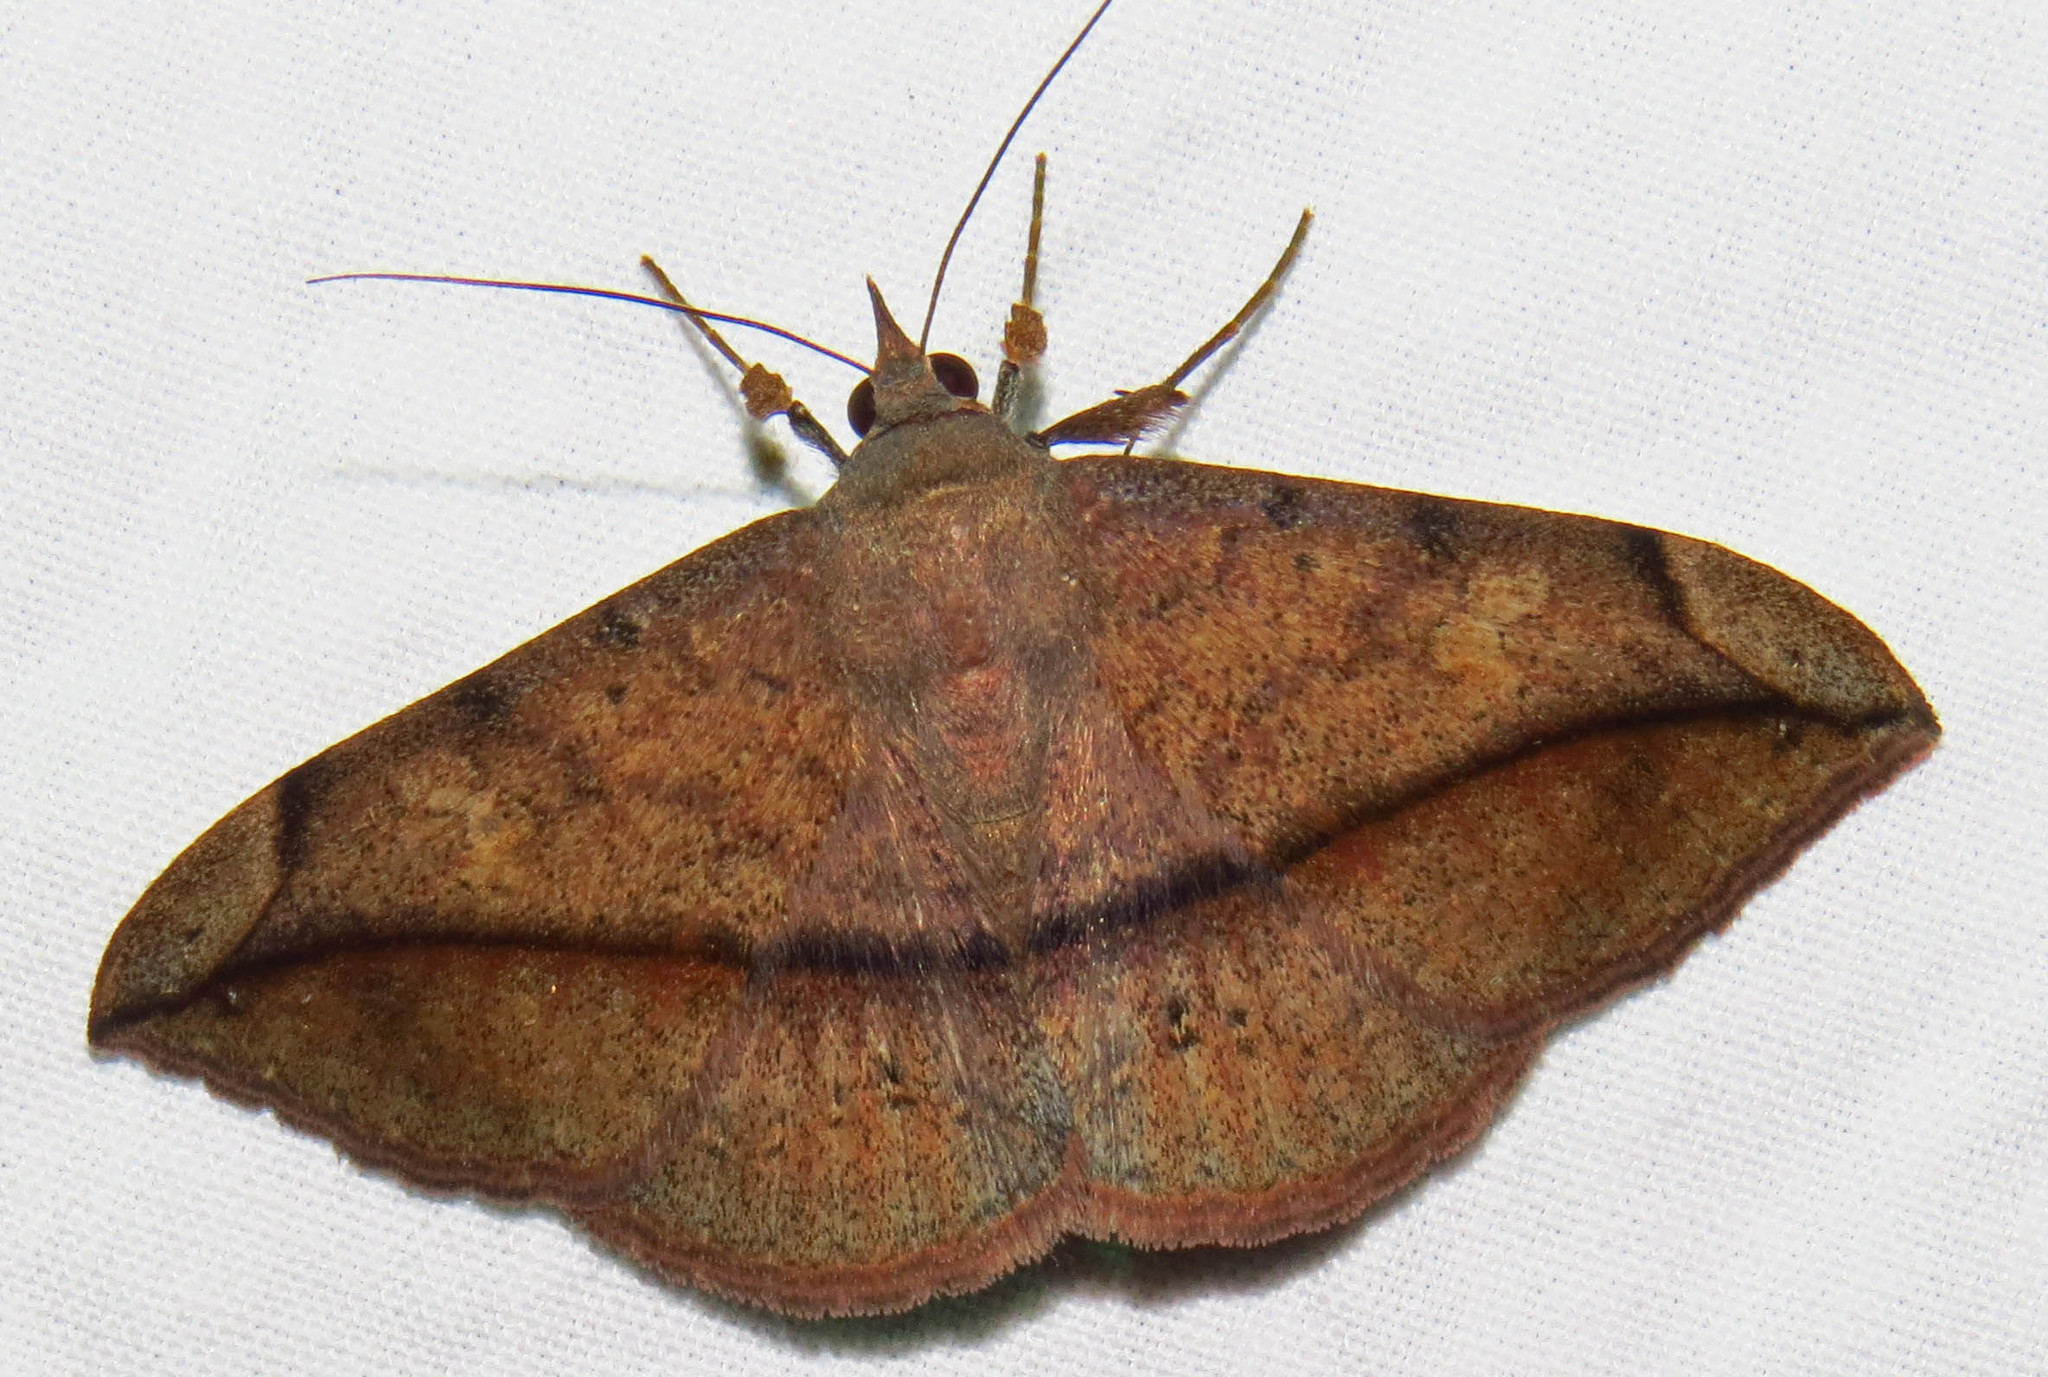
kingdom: Animalia
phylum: Arthropoda
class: Insecta
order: Lepidoptera
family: Erebidae
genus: Anticarsia
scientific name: Anticarsia gemmatalis
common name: Cutworm moth
